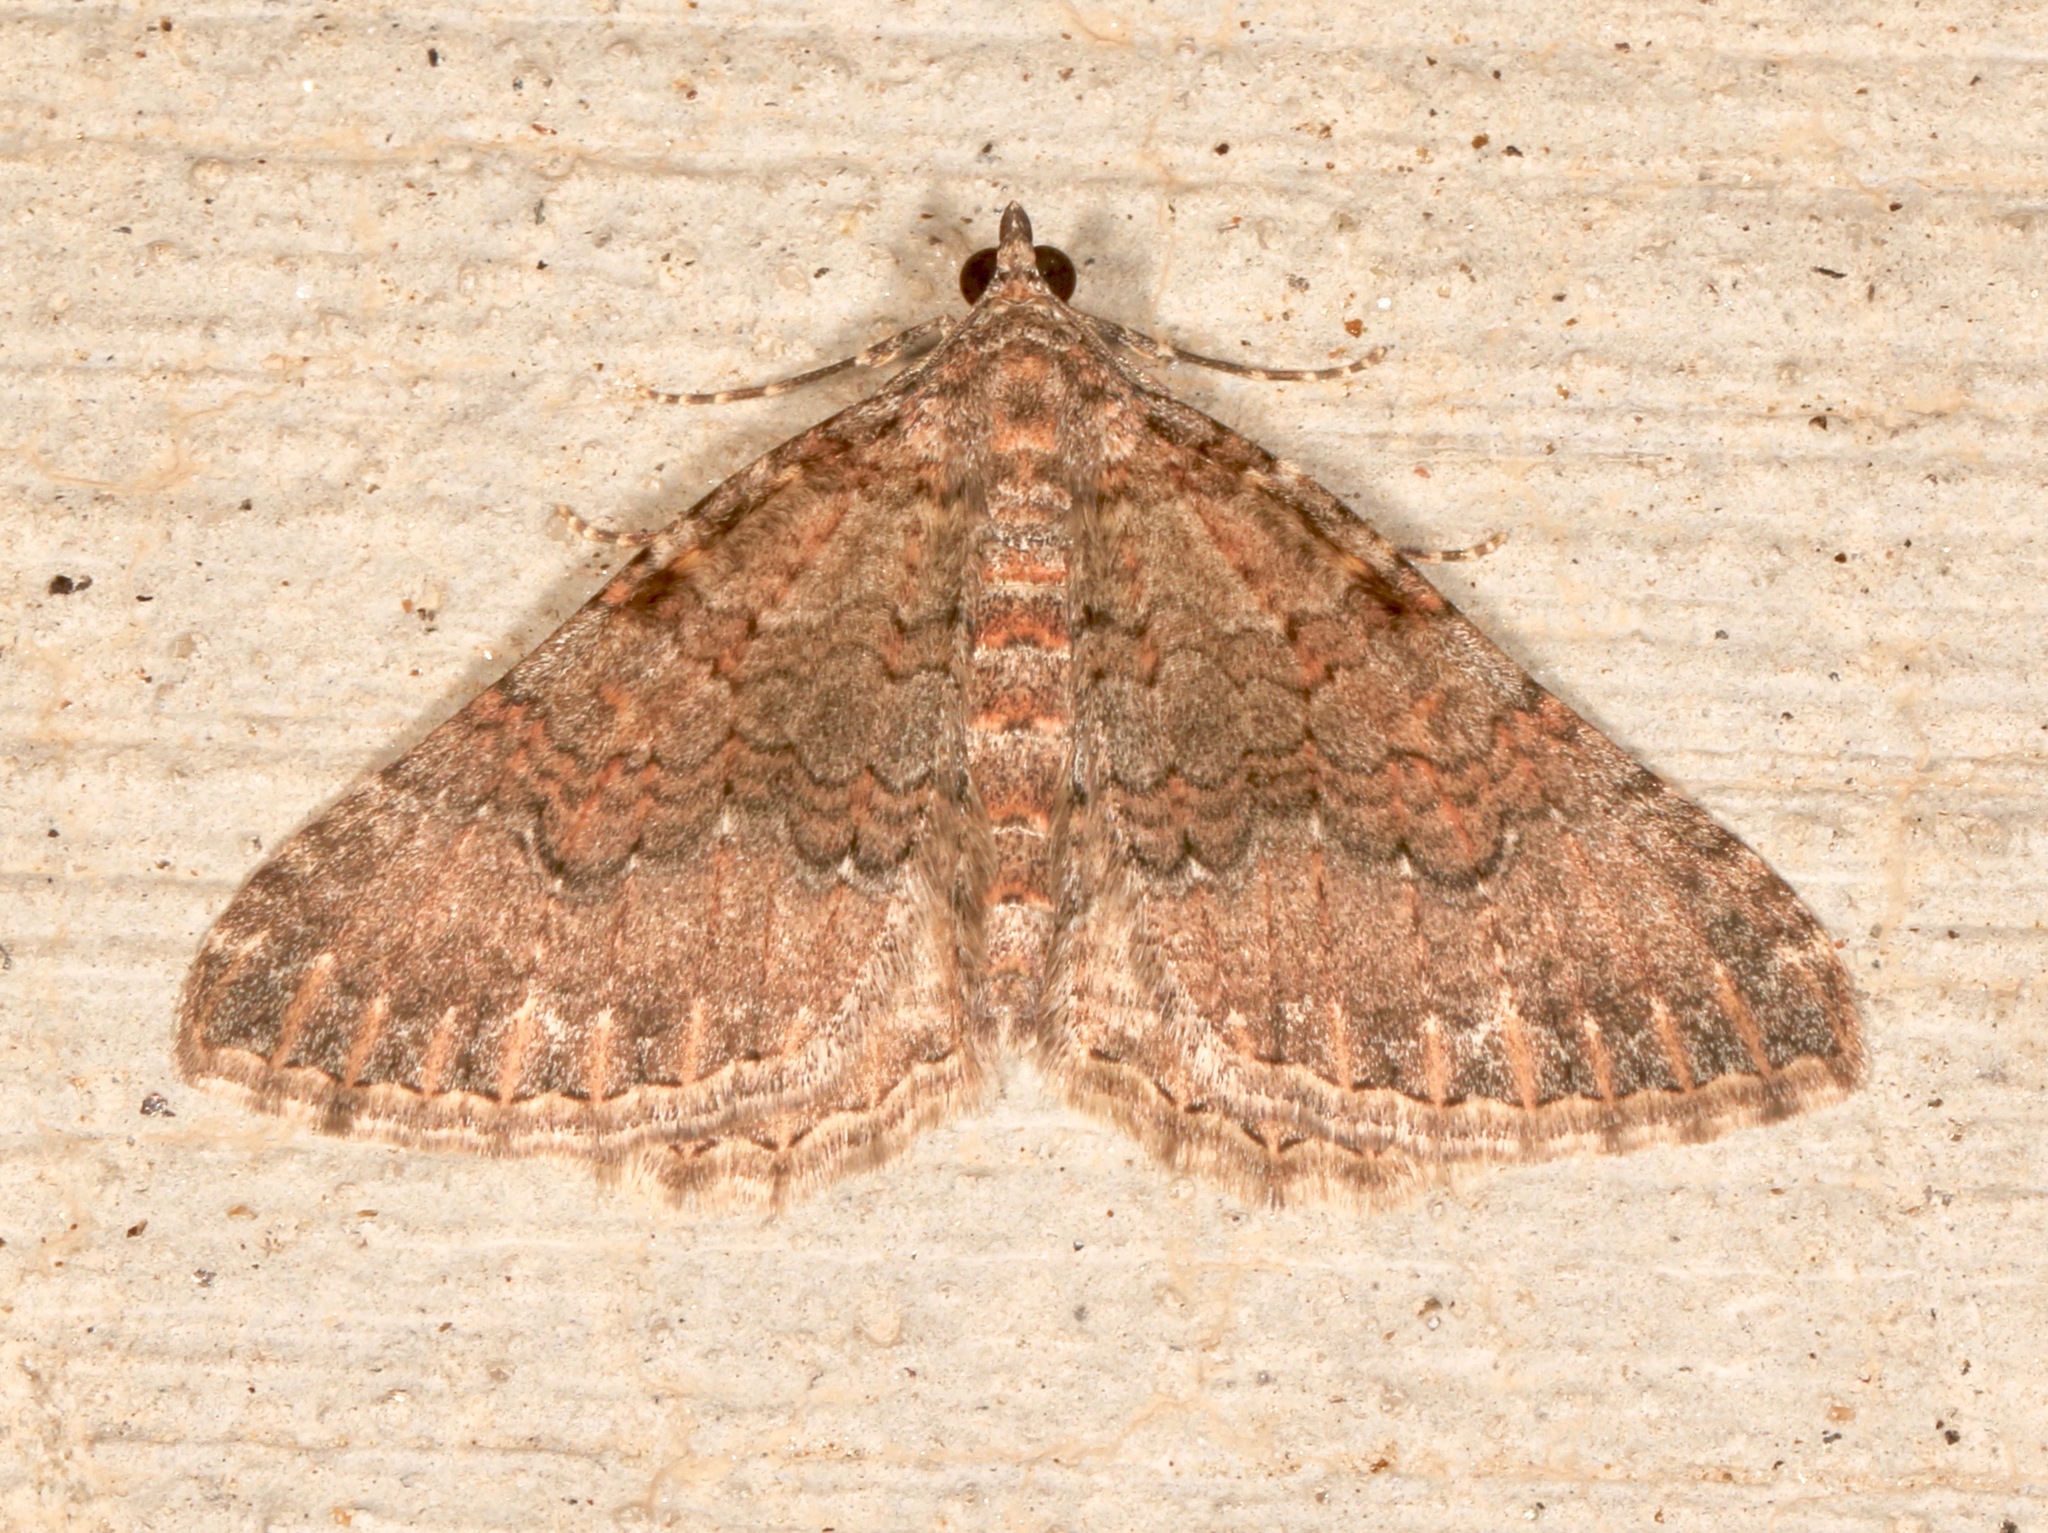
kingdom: Animalia
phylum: Arthropoda
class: Insecta
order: Lepidoptera
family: Geometridae
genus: Archirhoe
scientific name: Archirhoe neomexicana
